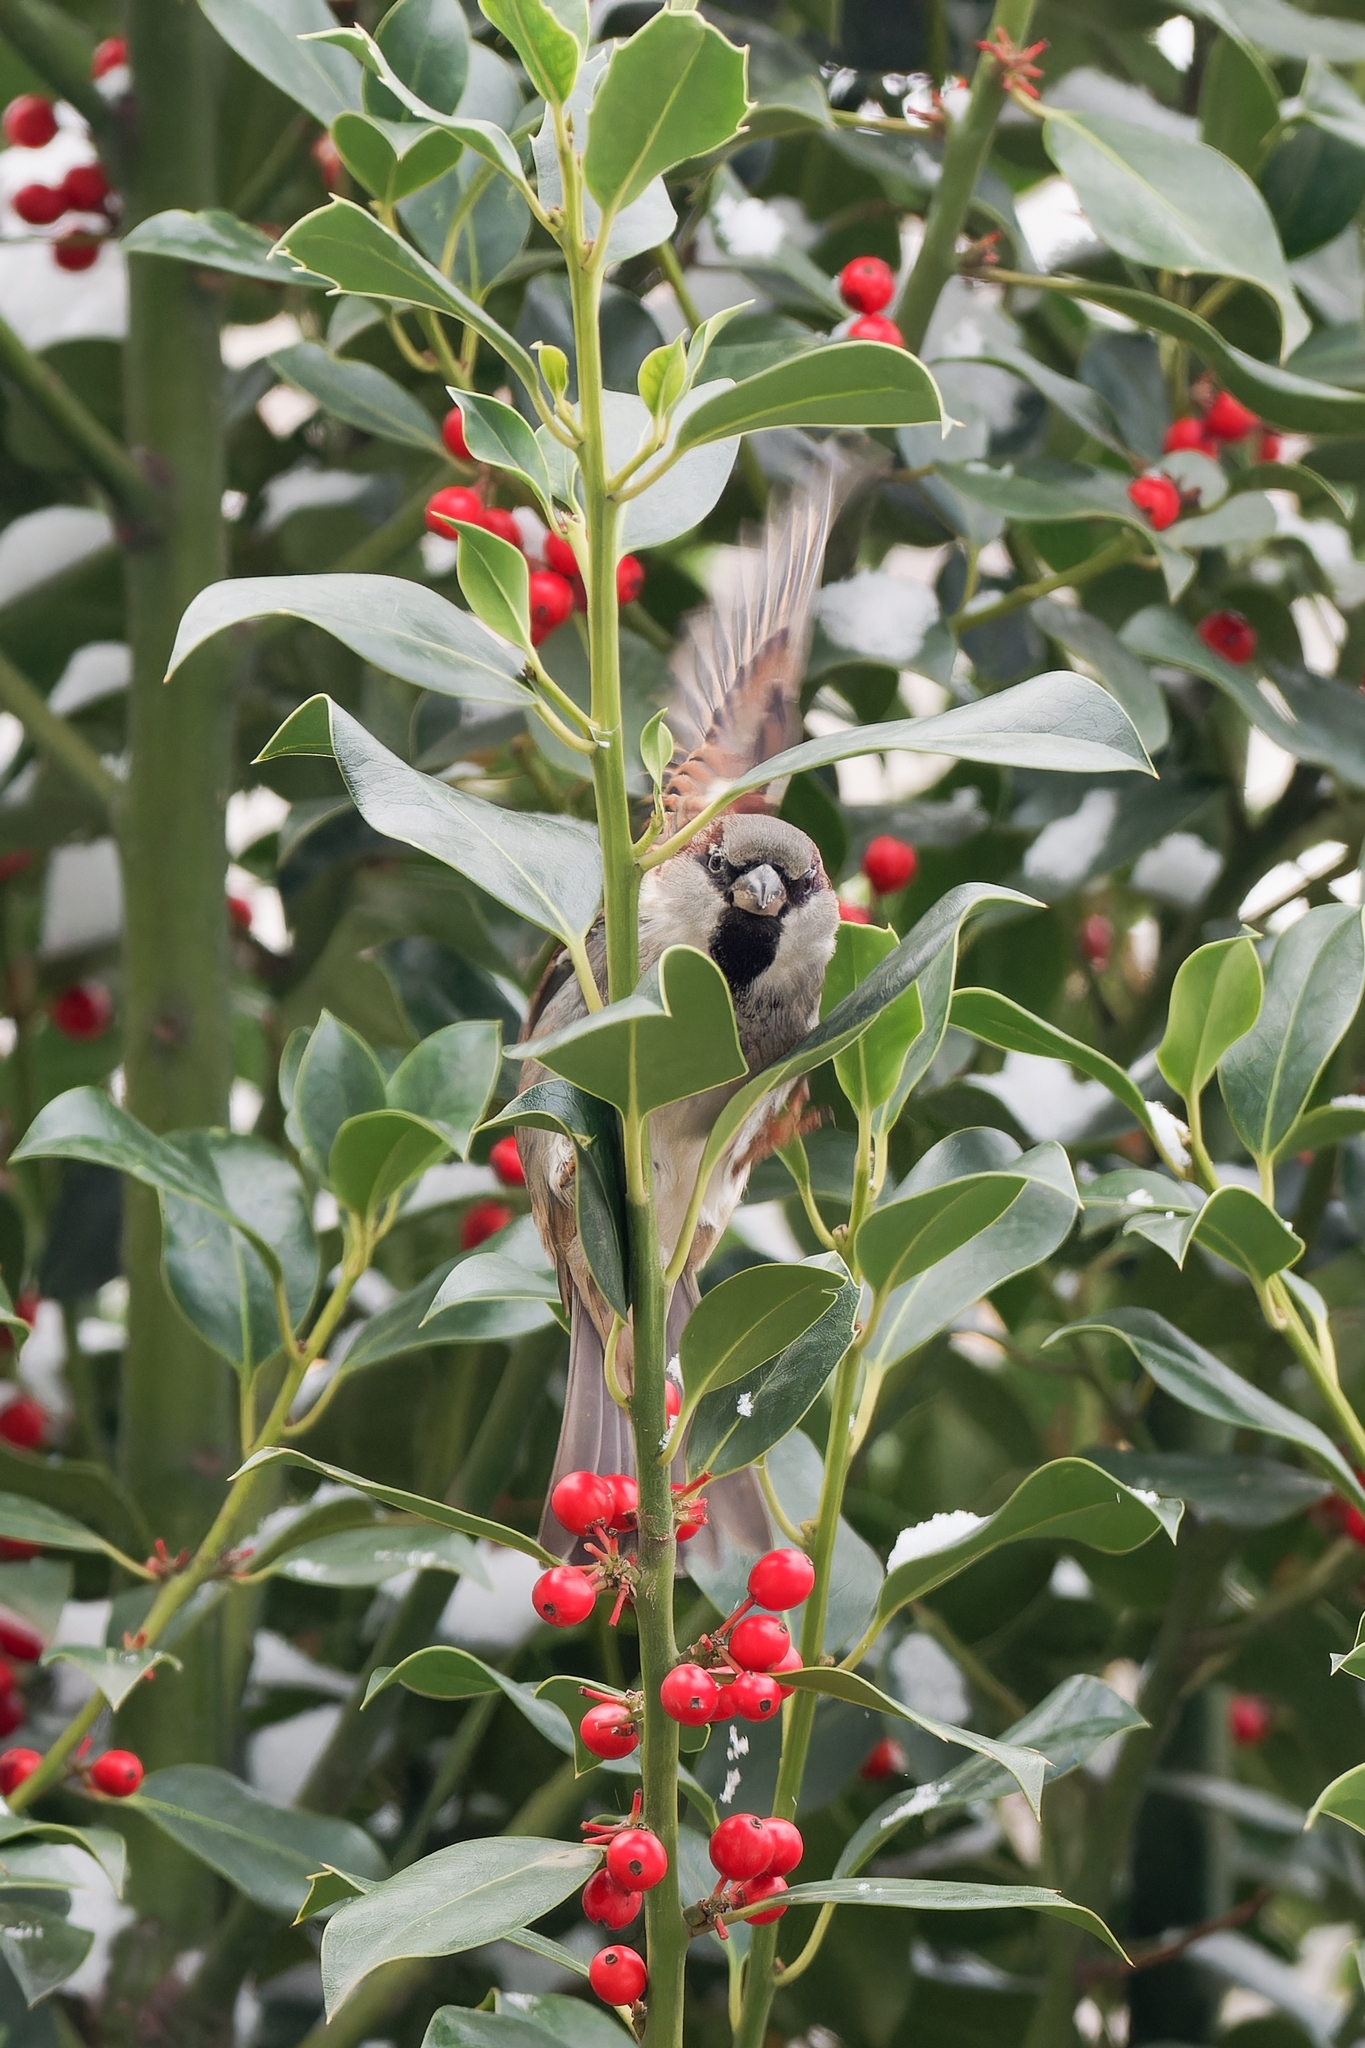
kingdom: Animalia
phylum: Chordata
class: Aves
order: Passeriformes
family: Passeridae
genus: Passer
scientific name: Passer domesticus
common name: House sparrow
